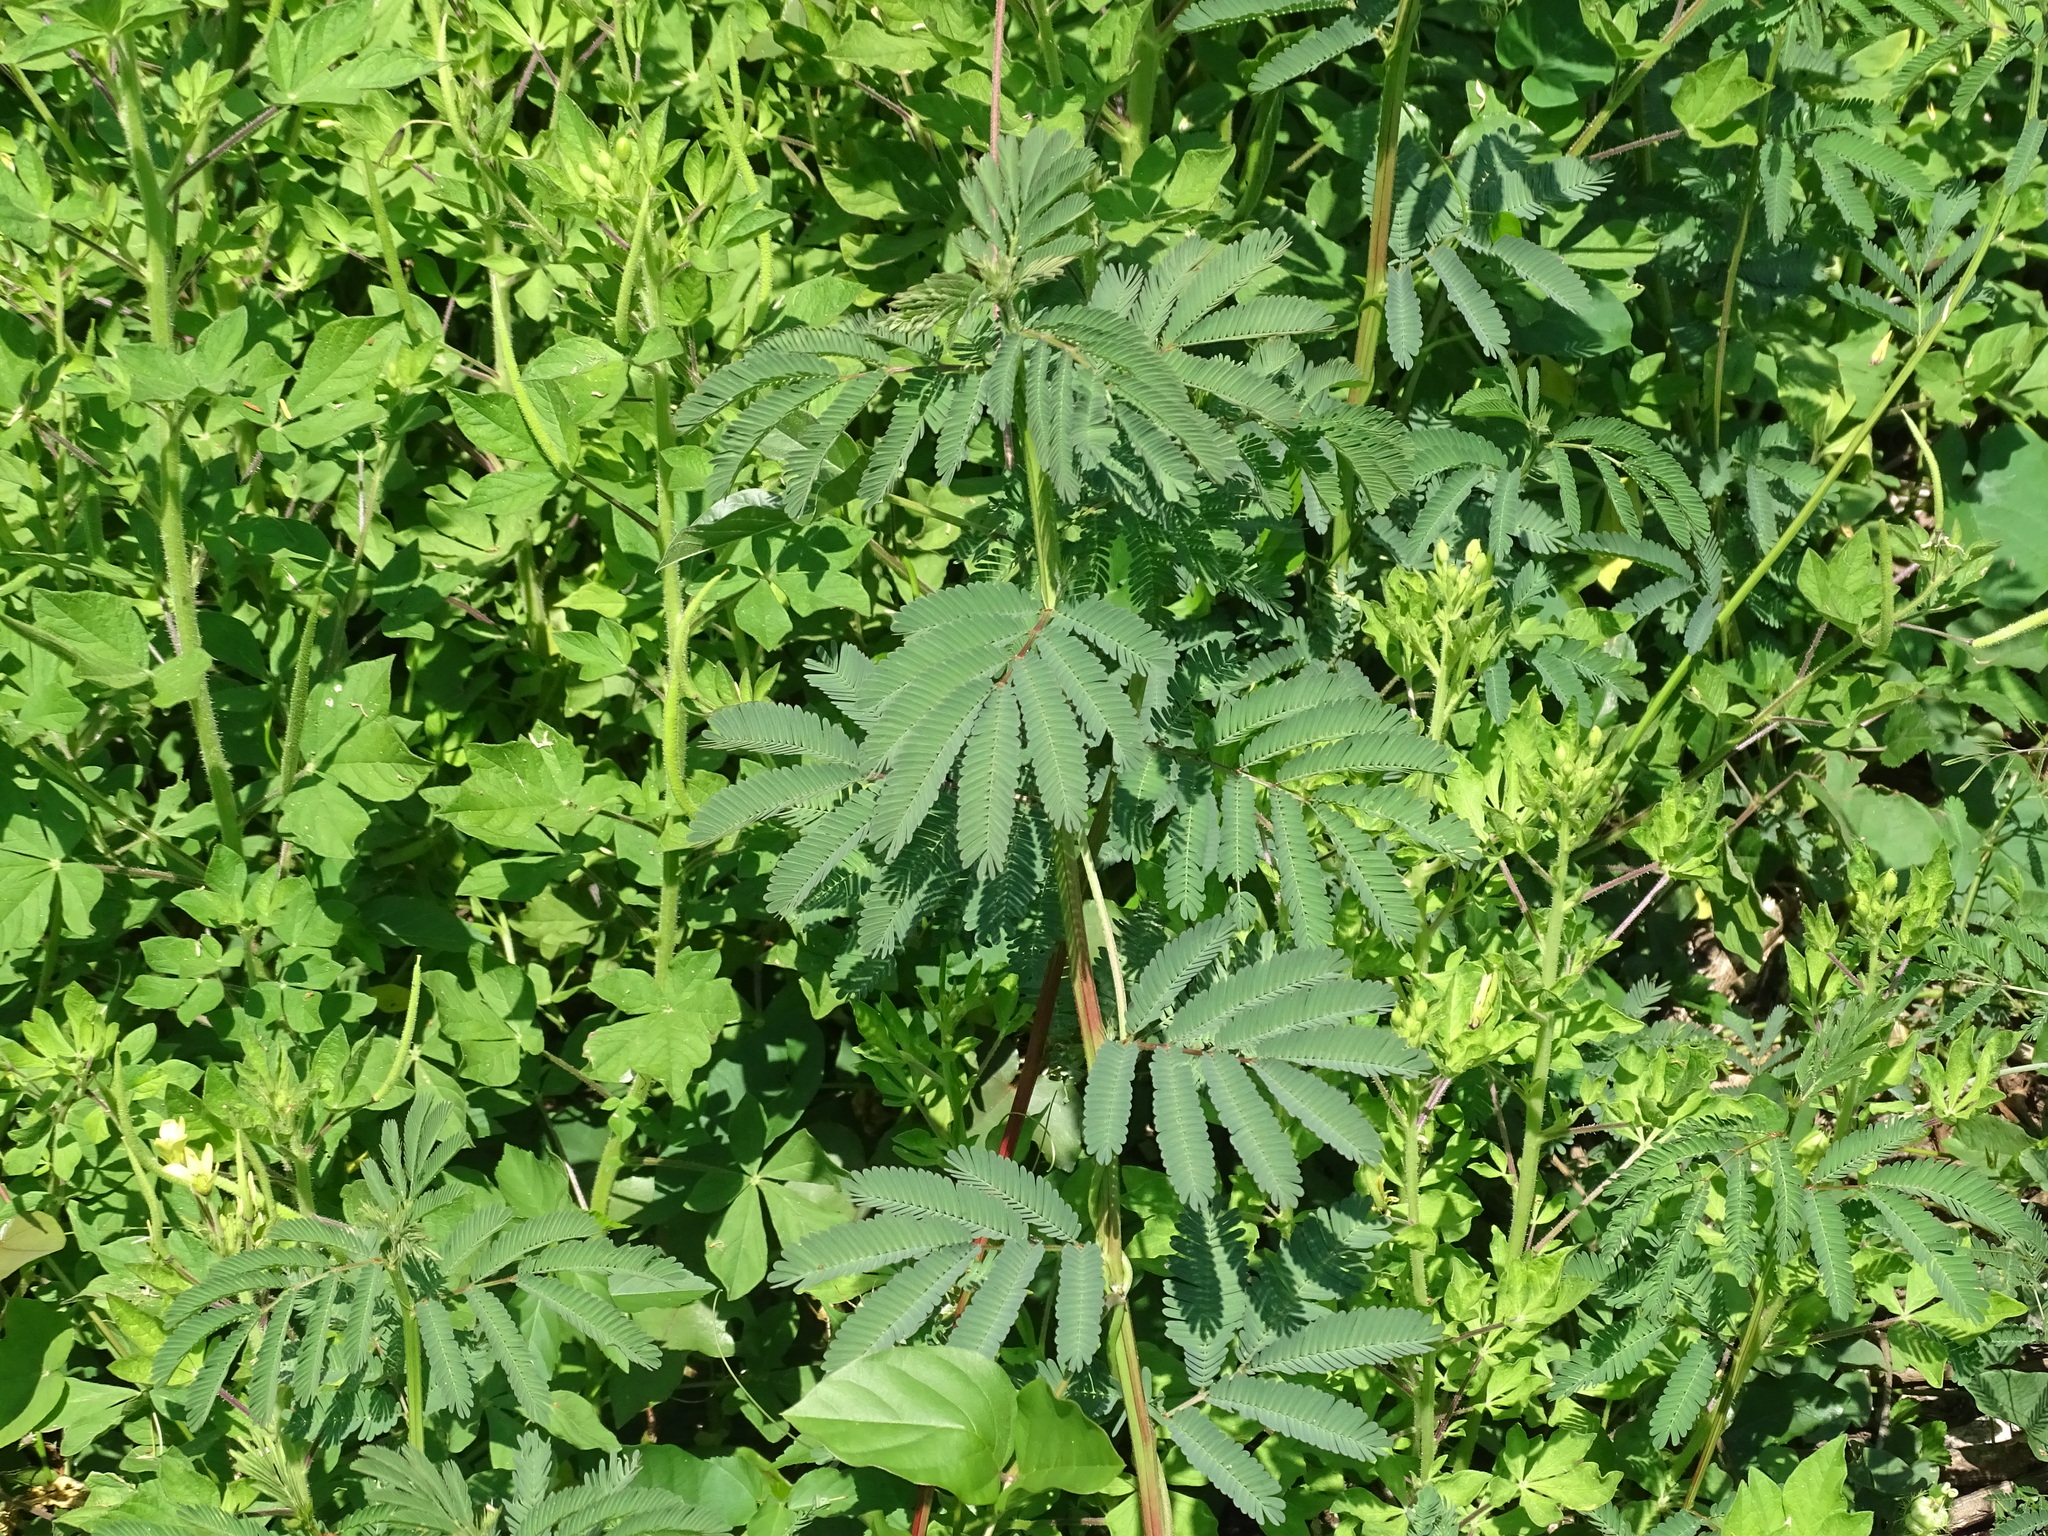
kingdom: Plantae
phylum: Tracheophyta
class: Magnoliopsida
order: Fabales
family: Fabaceae
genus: Desmanthus
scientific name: Desmanthus virgatus
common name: Wild tantan
